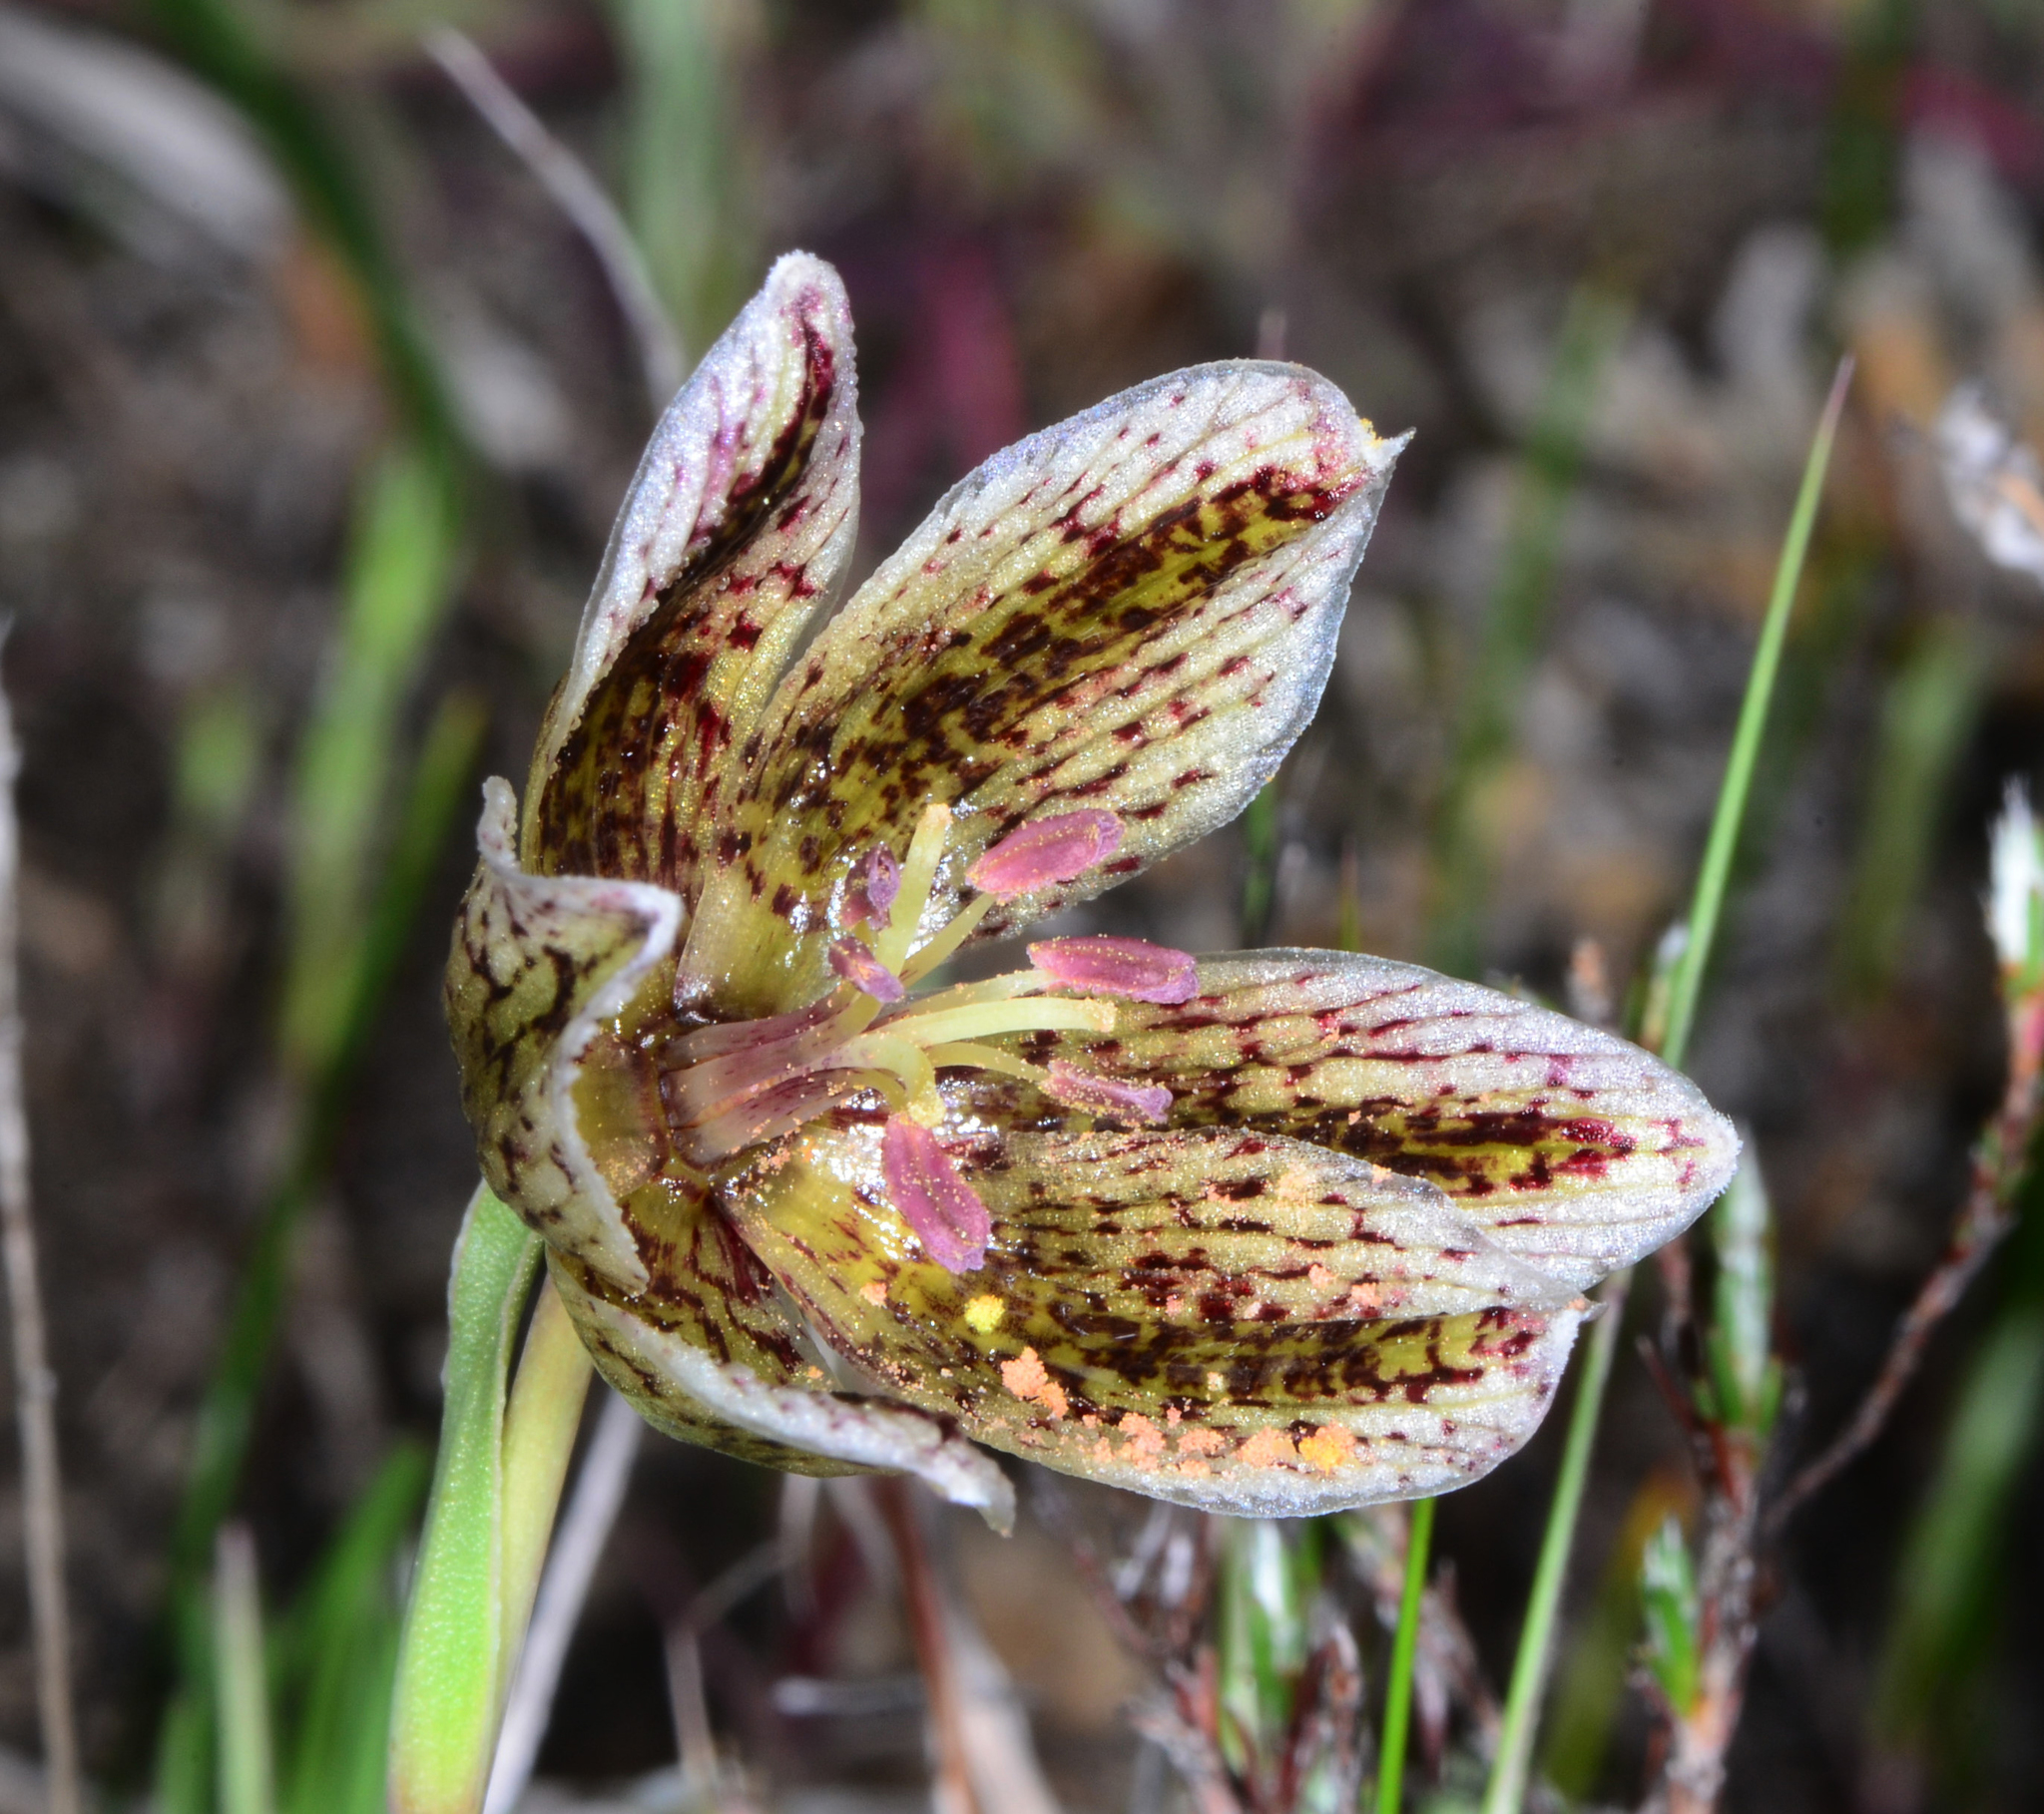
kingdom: Plantae
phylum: Tracheophyta
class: Liliopsida
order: Liliales
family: Liliaceae
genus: Fritillaria
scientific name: Fritillaria purdyi
